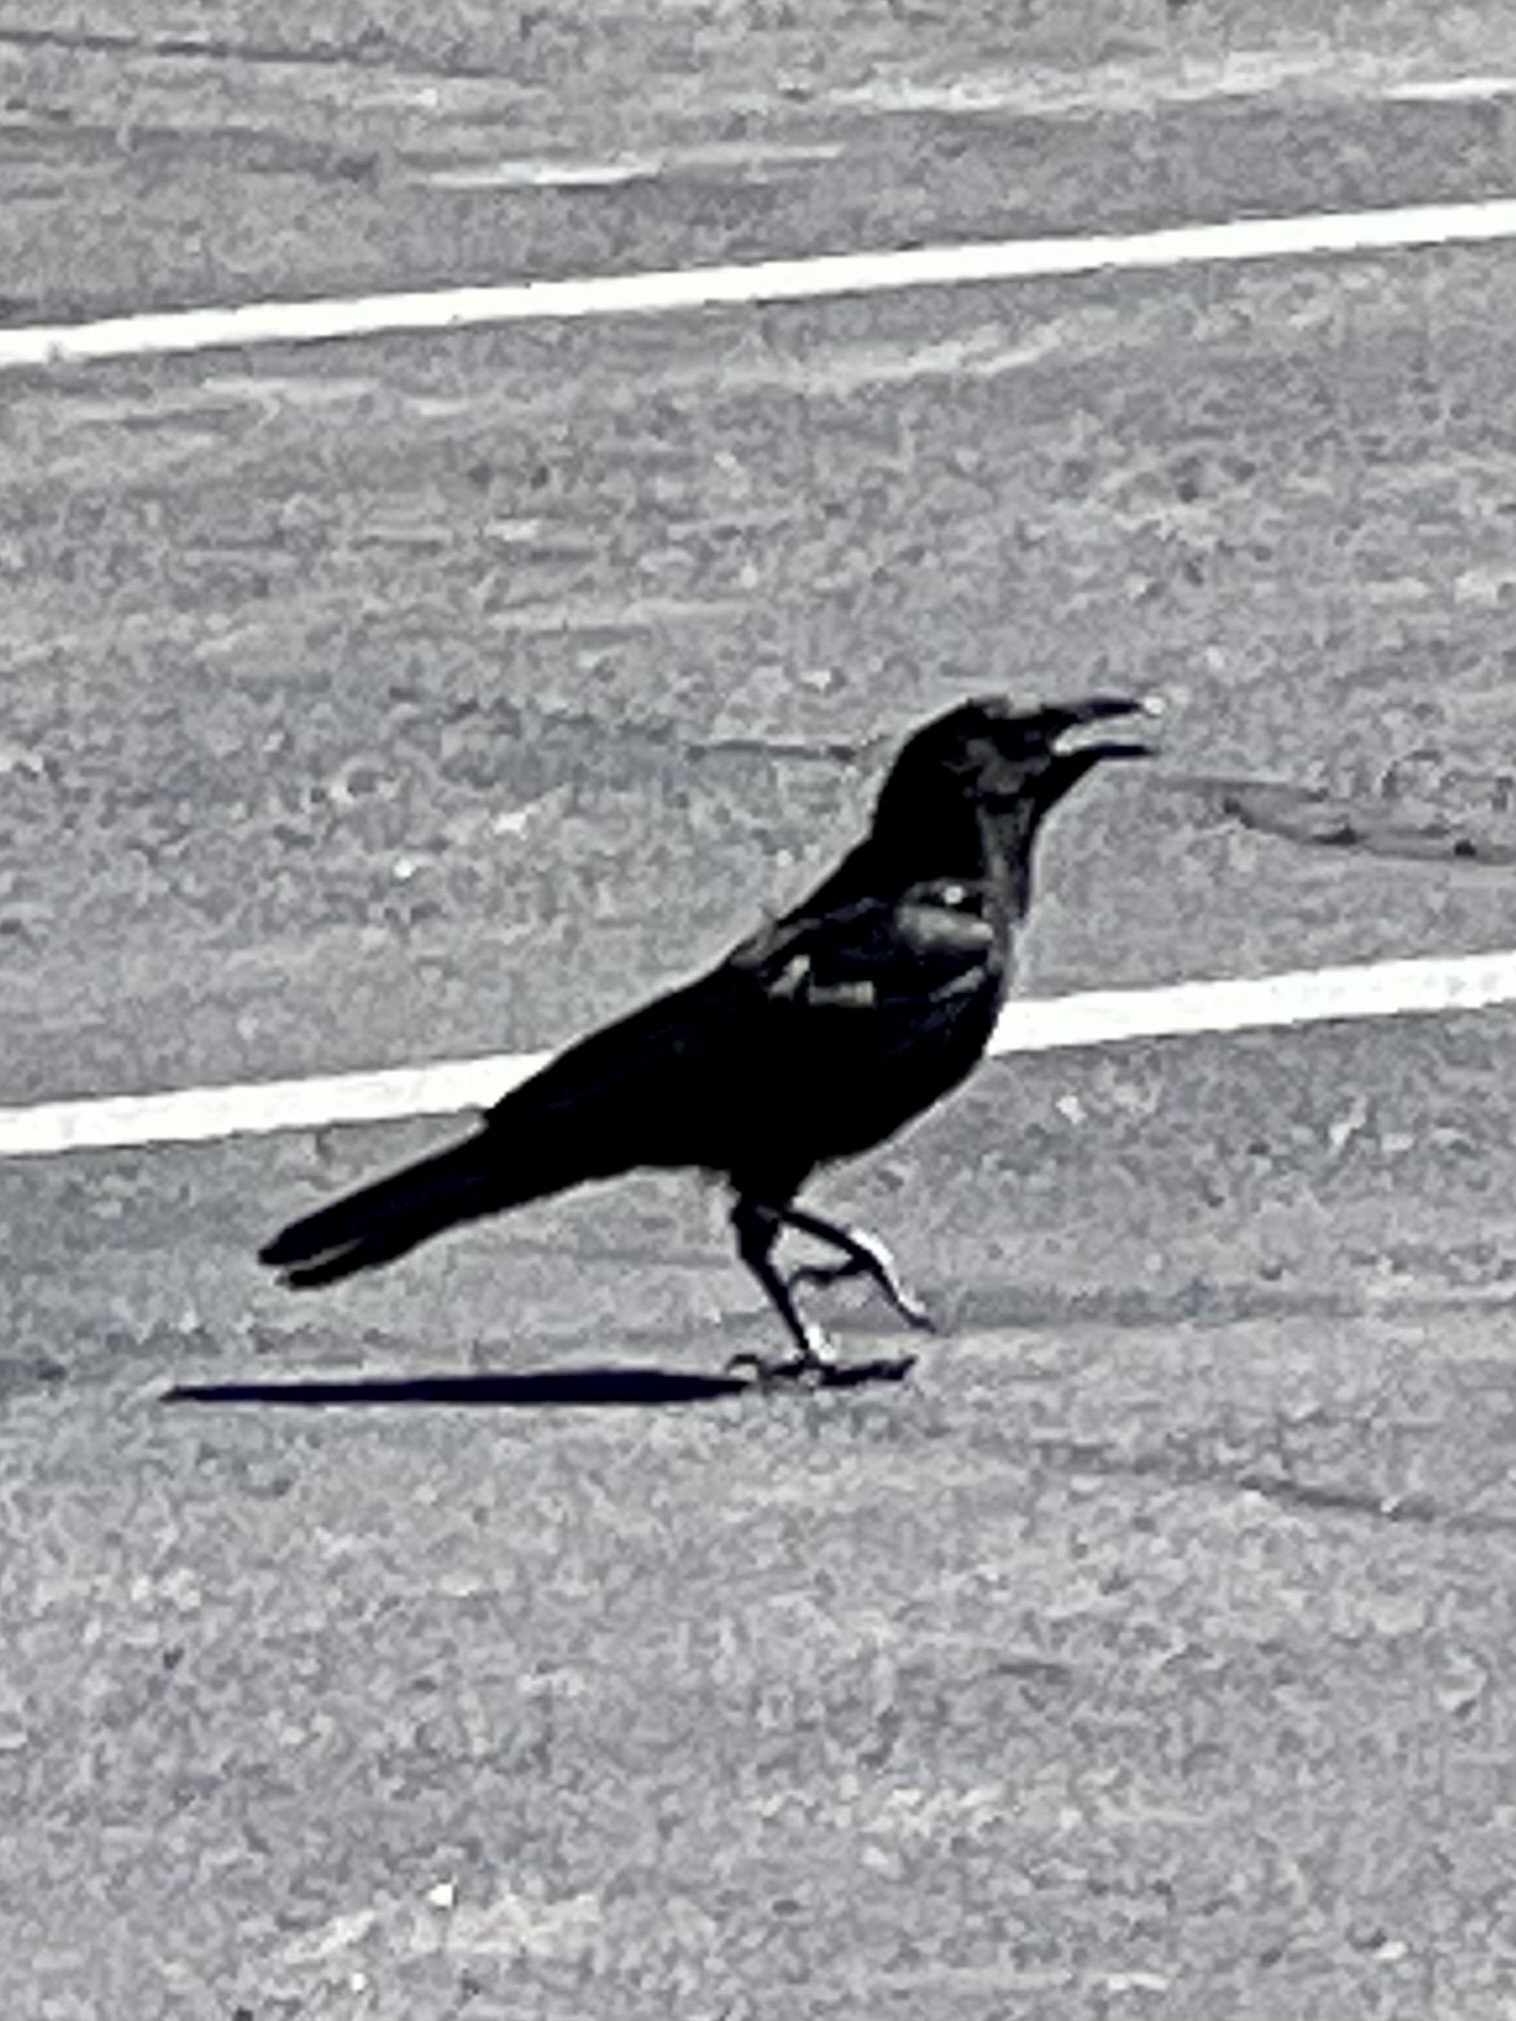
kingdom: Animalia
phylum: Chordata
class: Aves
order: Passeriformes
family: Corvidae
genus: Corvus
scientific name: Corvus corax
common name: Common raven
